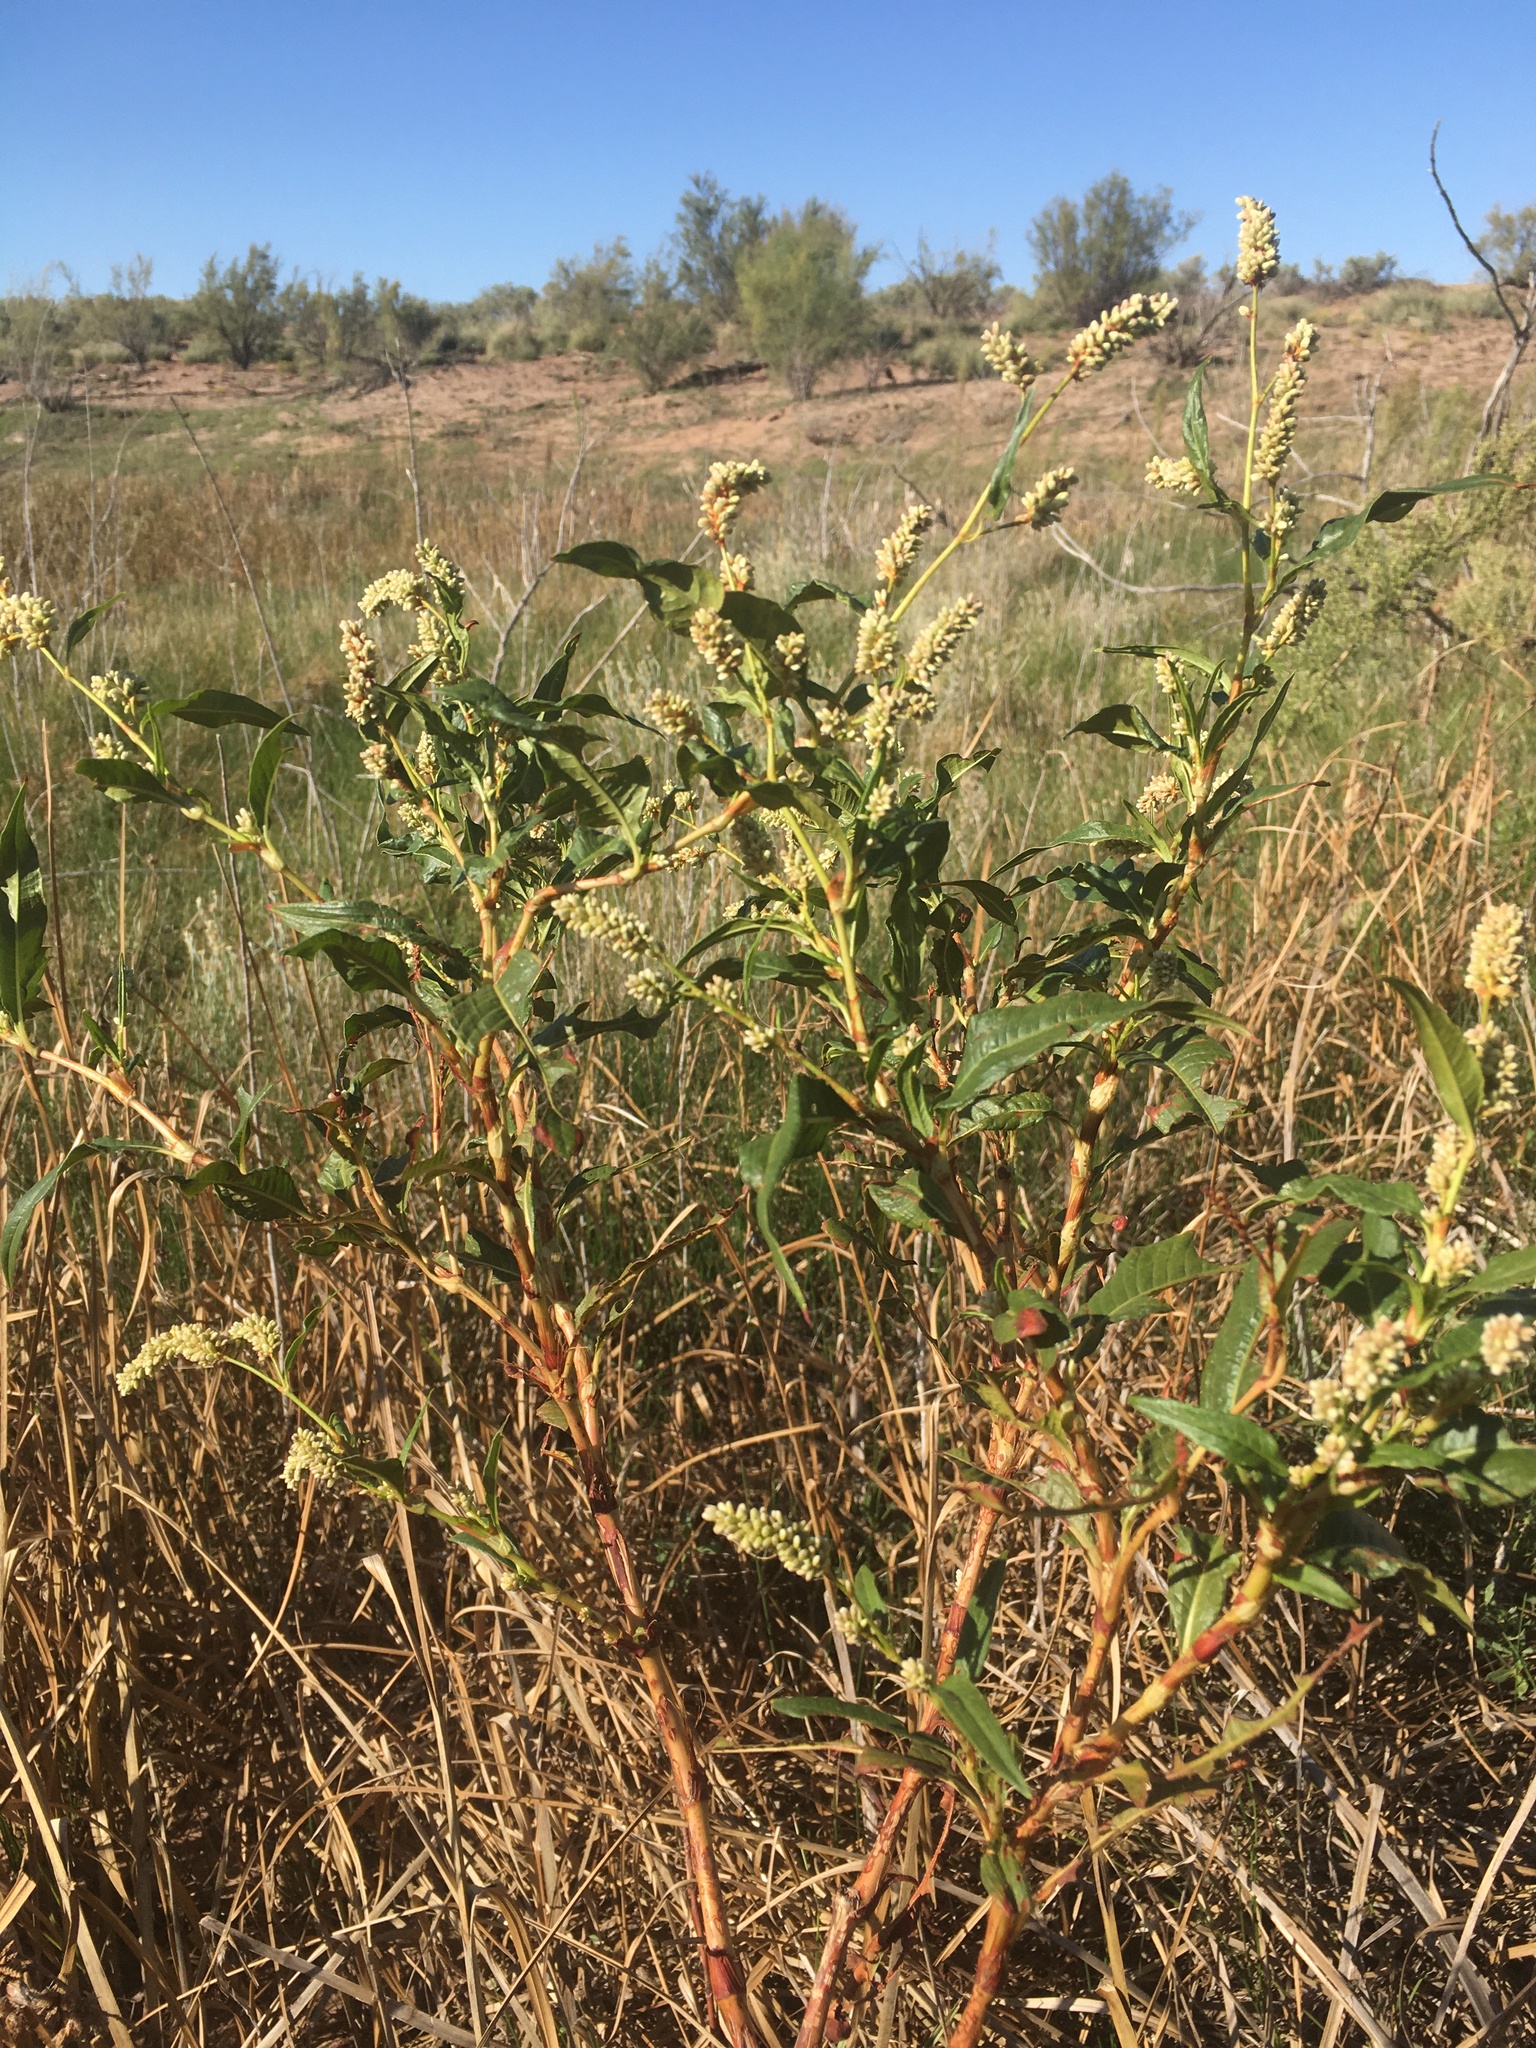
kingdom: Plantae
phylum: Tracheophyta
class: Magnoliopsida
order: Caryophyllales
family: Polygonaceae
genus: Persicaria
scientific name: Persicaria lapathifolia
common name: Curlytop knotweed
